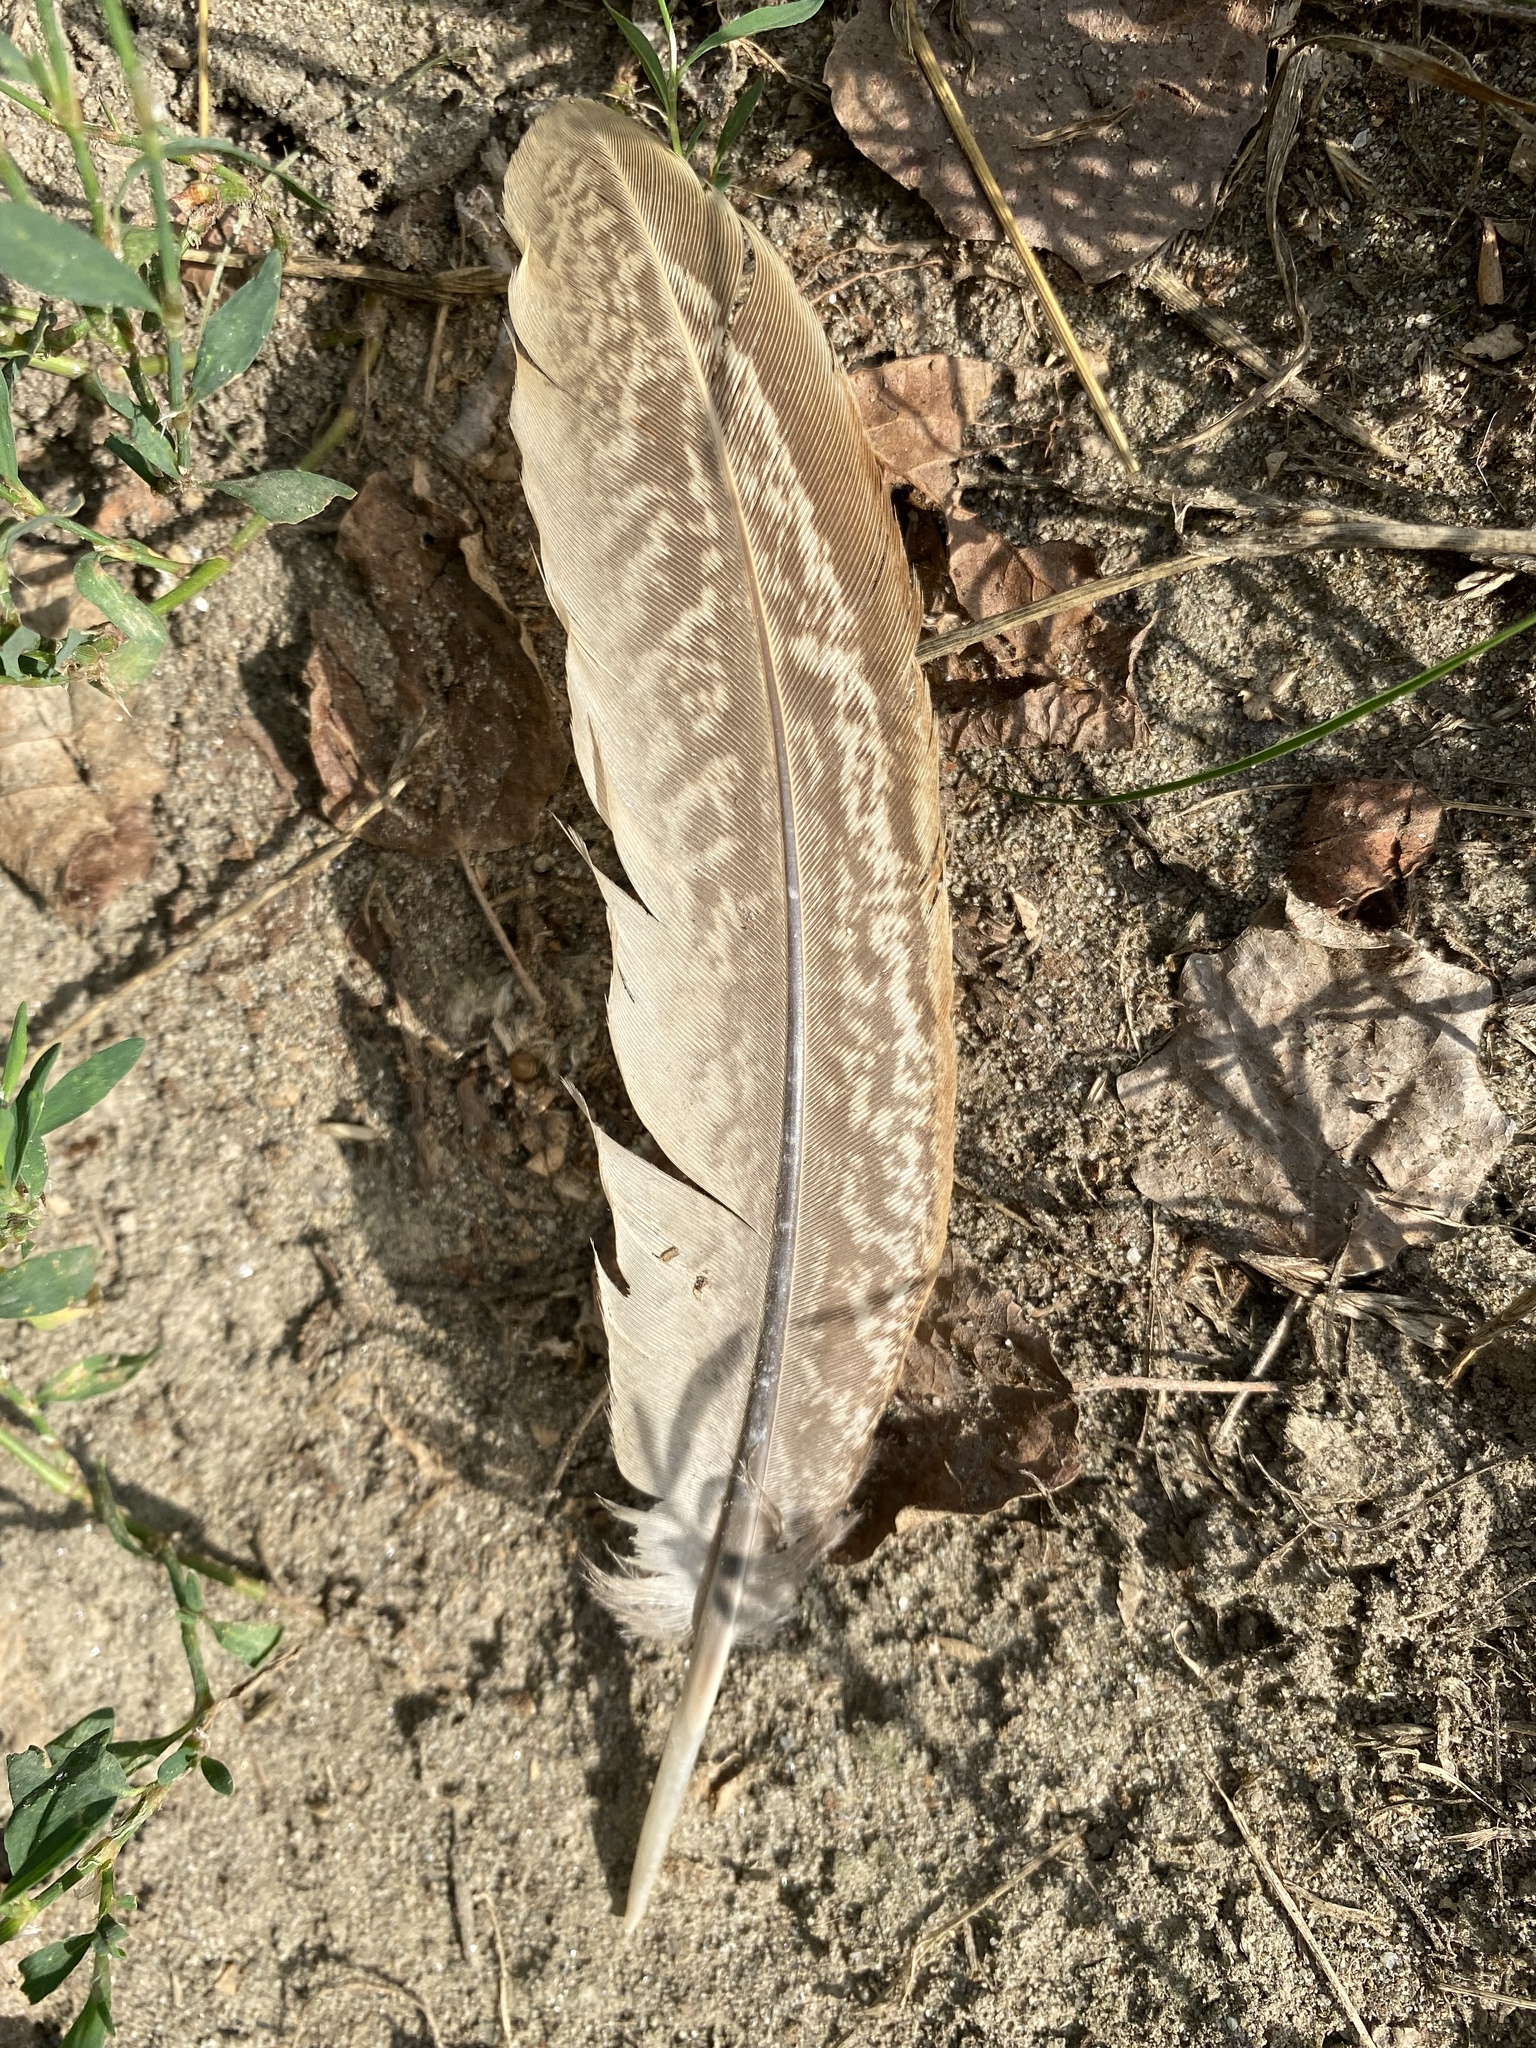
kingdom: Animalia
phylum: Chordata
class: Aves
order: Galliformes
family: Phasianidae
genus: Phasianus
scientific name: Phasianus colchicus
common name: Common pheasant
